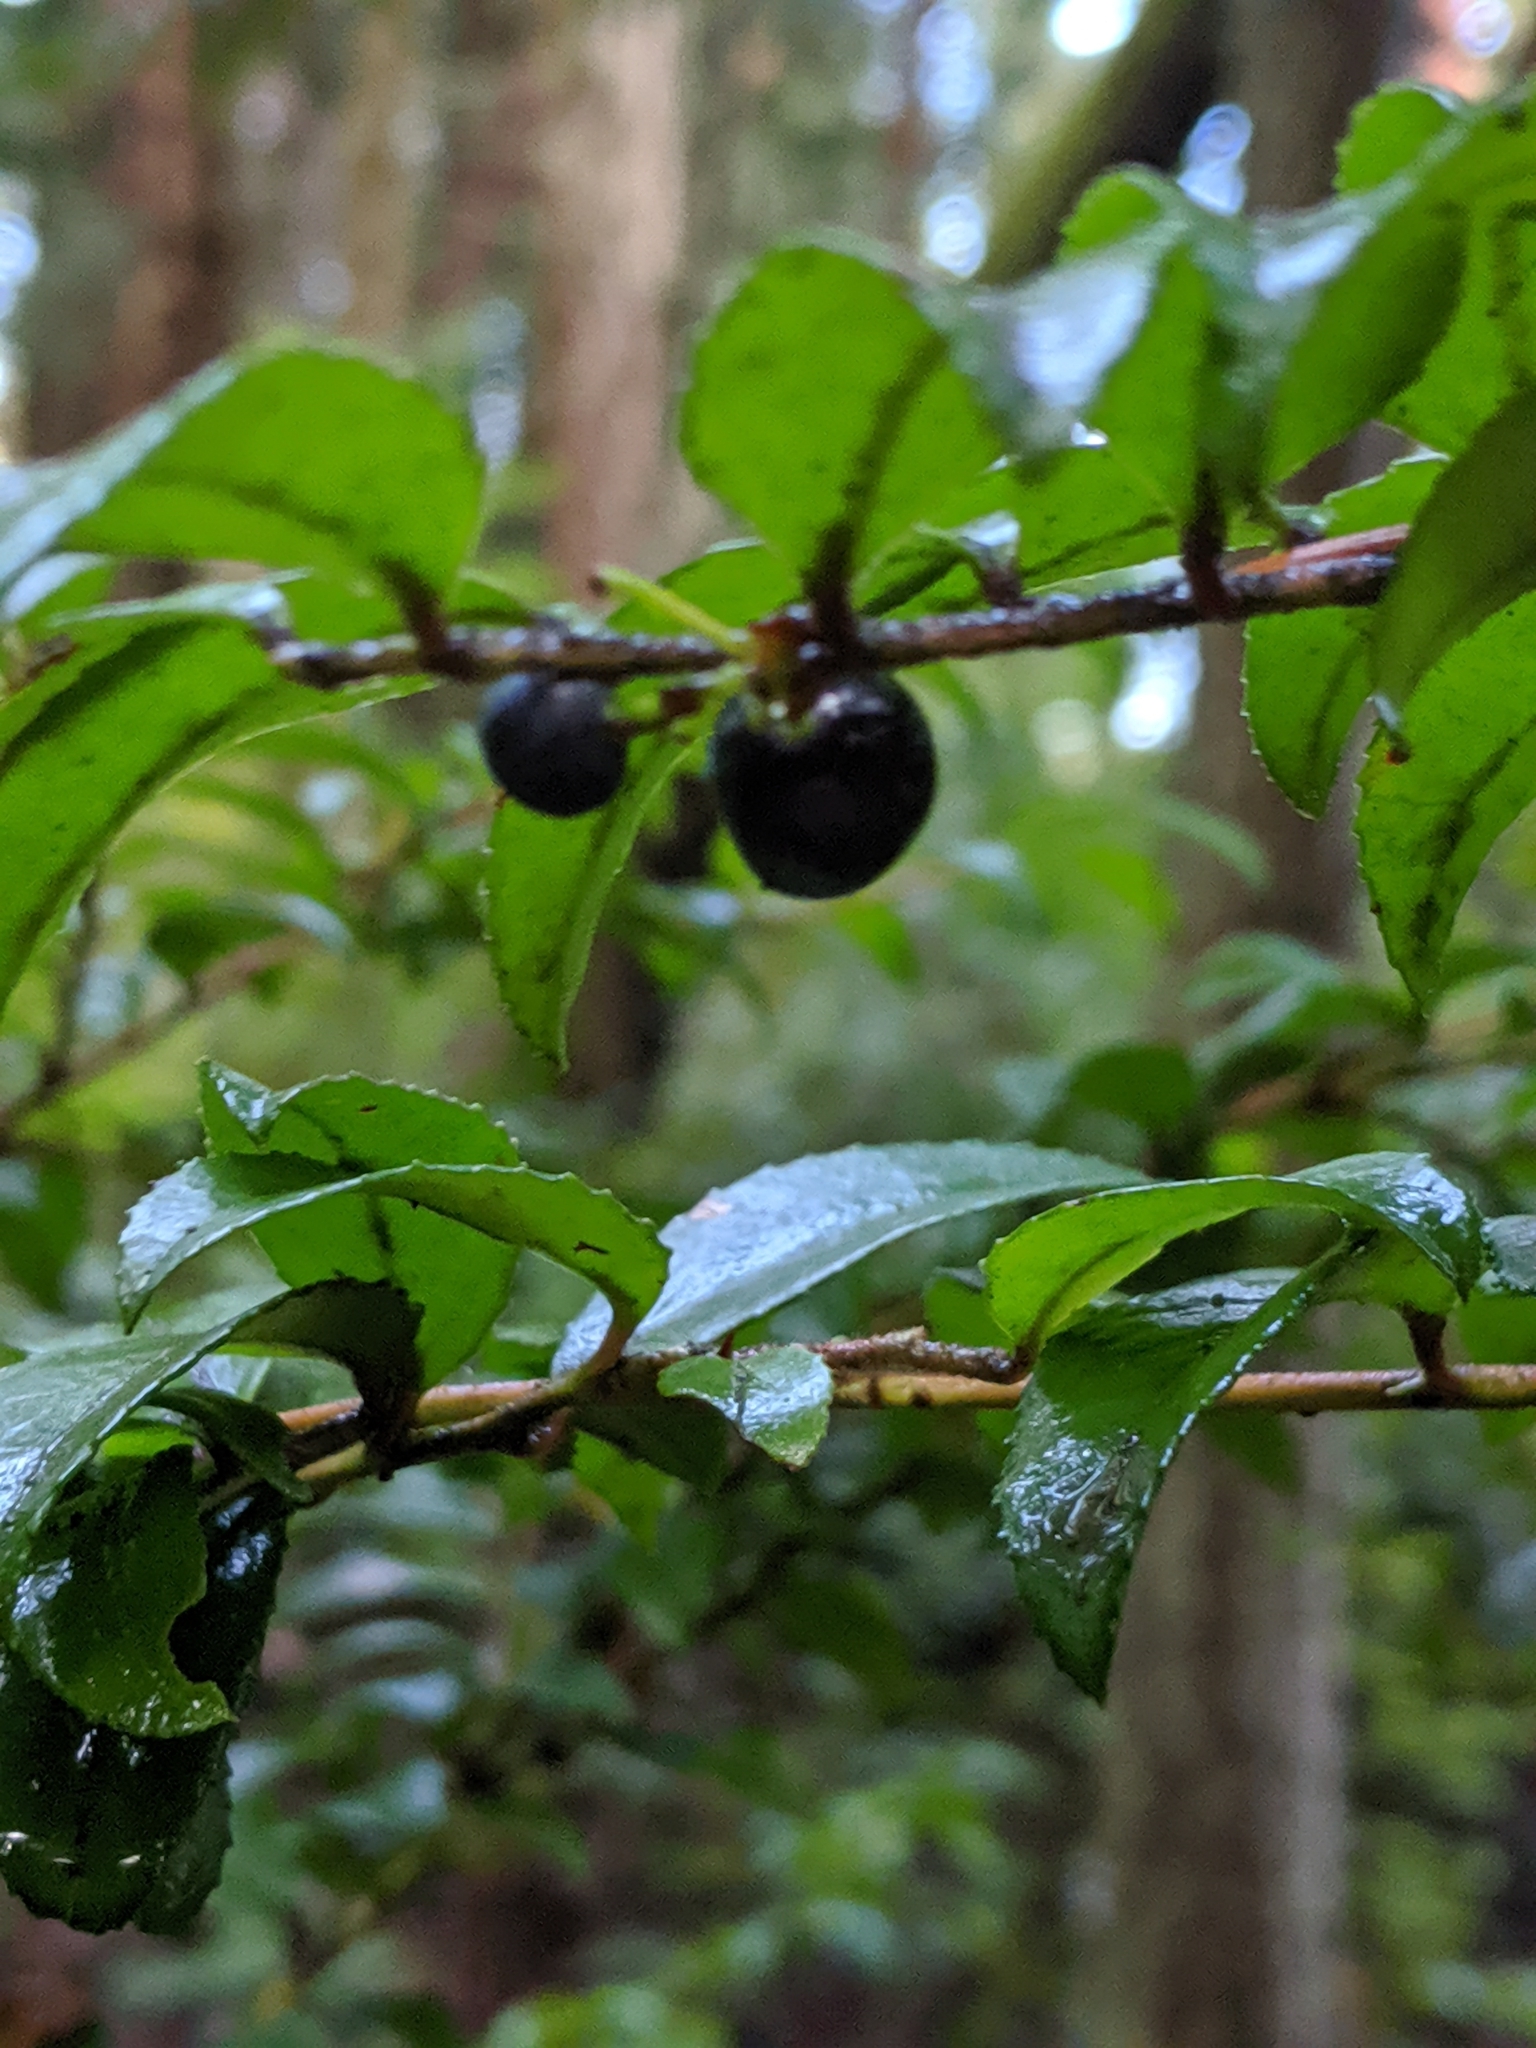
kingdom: Plantae
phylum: Tracheophyta
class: Magnoliopsida
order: Ericales
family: Ericaceae
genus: Vaccinium
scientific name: Vaccinium ovatum
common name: California-huckleberry
